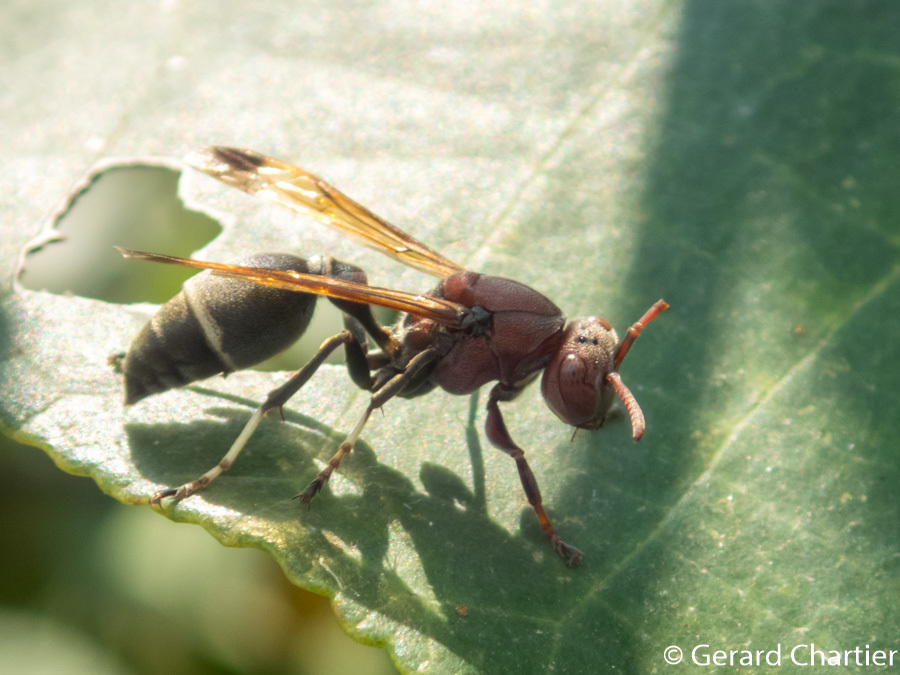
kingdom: Animalia
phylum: Arthropoda
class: Insecta
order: Hymenoptera
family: Vespidae
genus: Ropalidia
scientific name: Ropalidia magnanima
